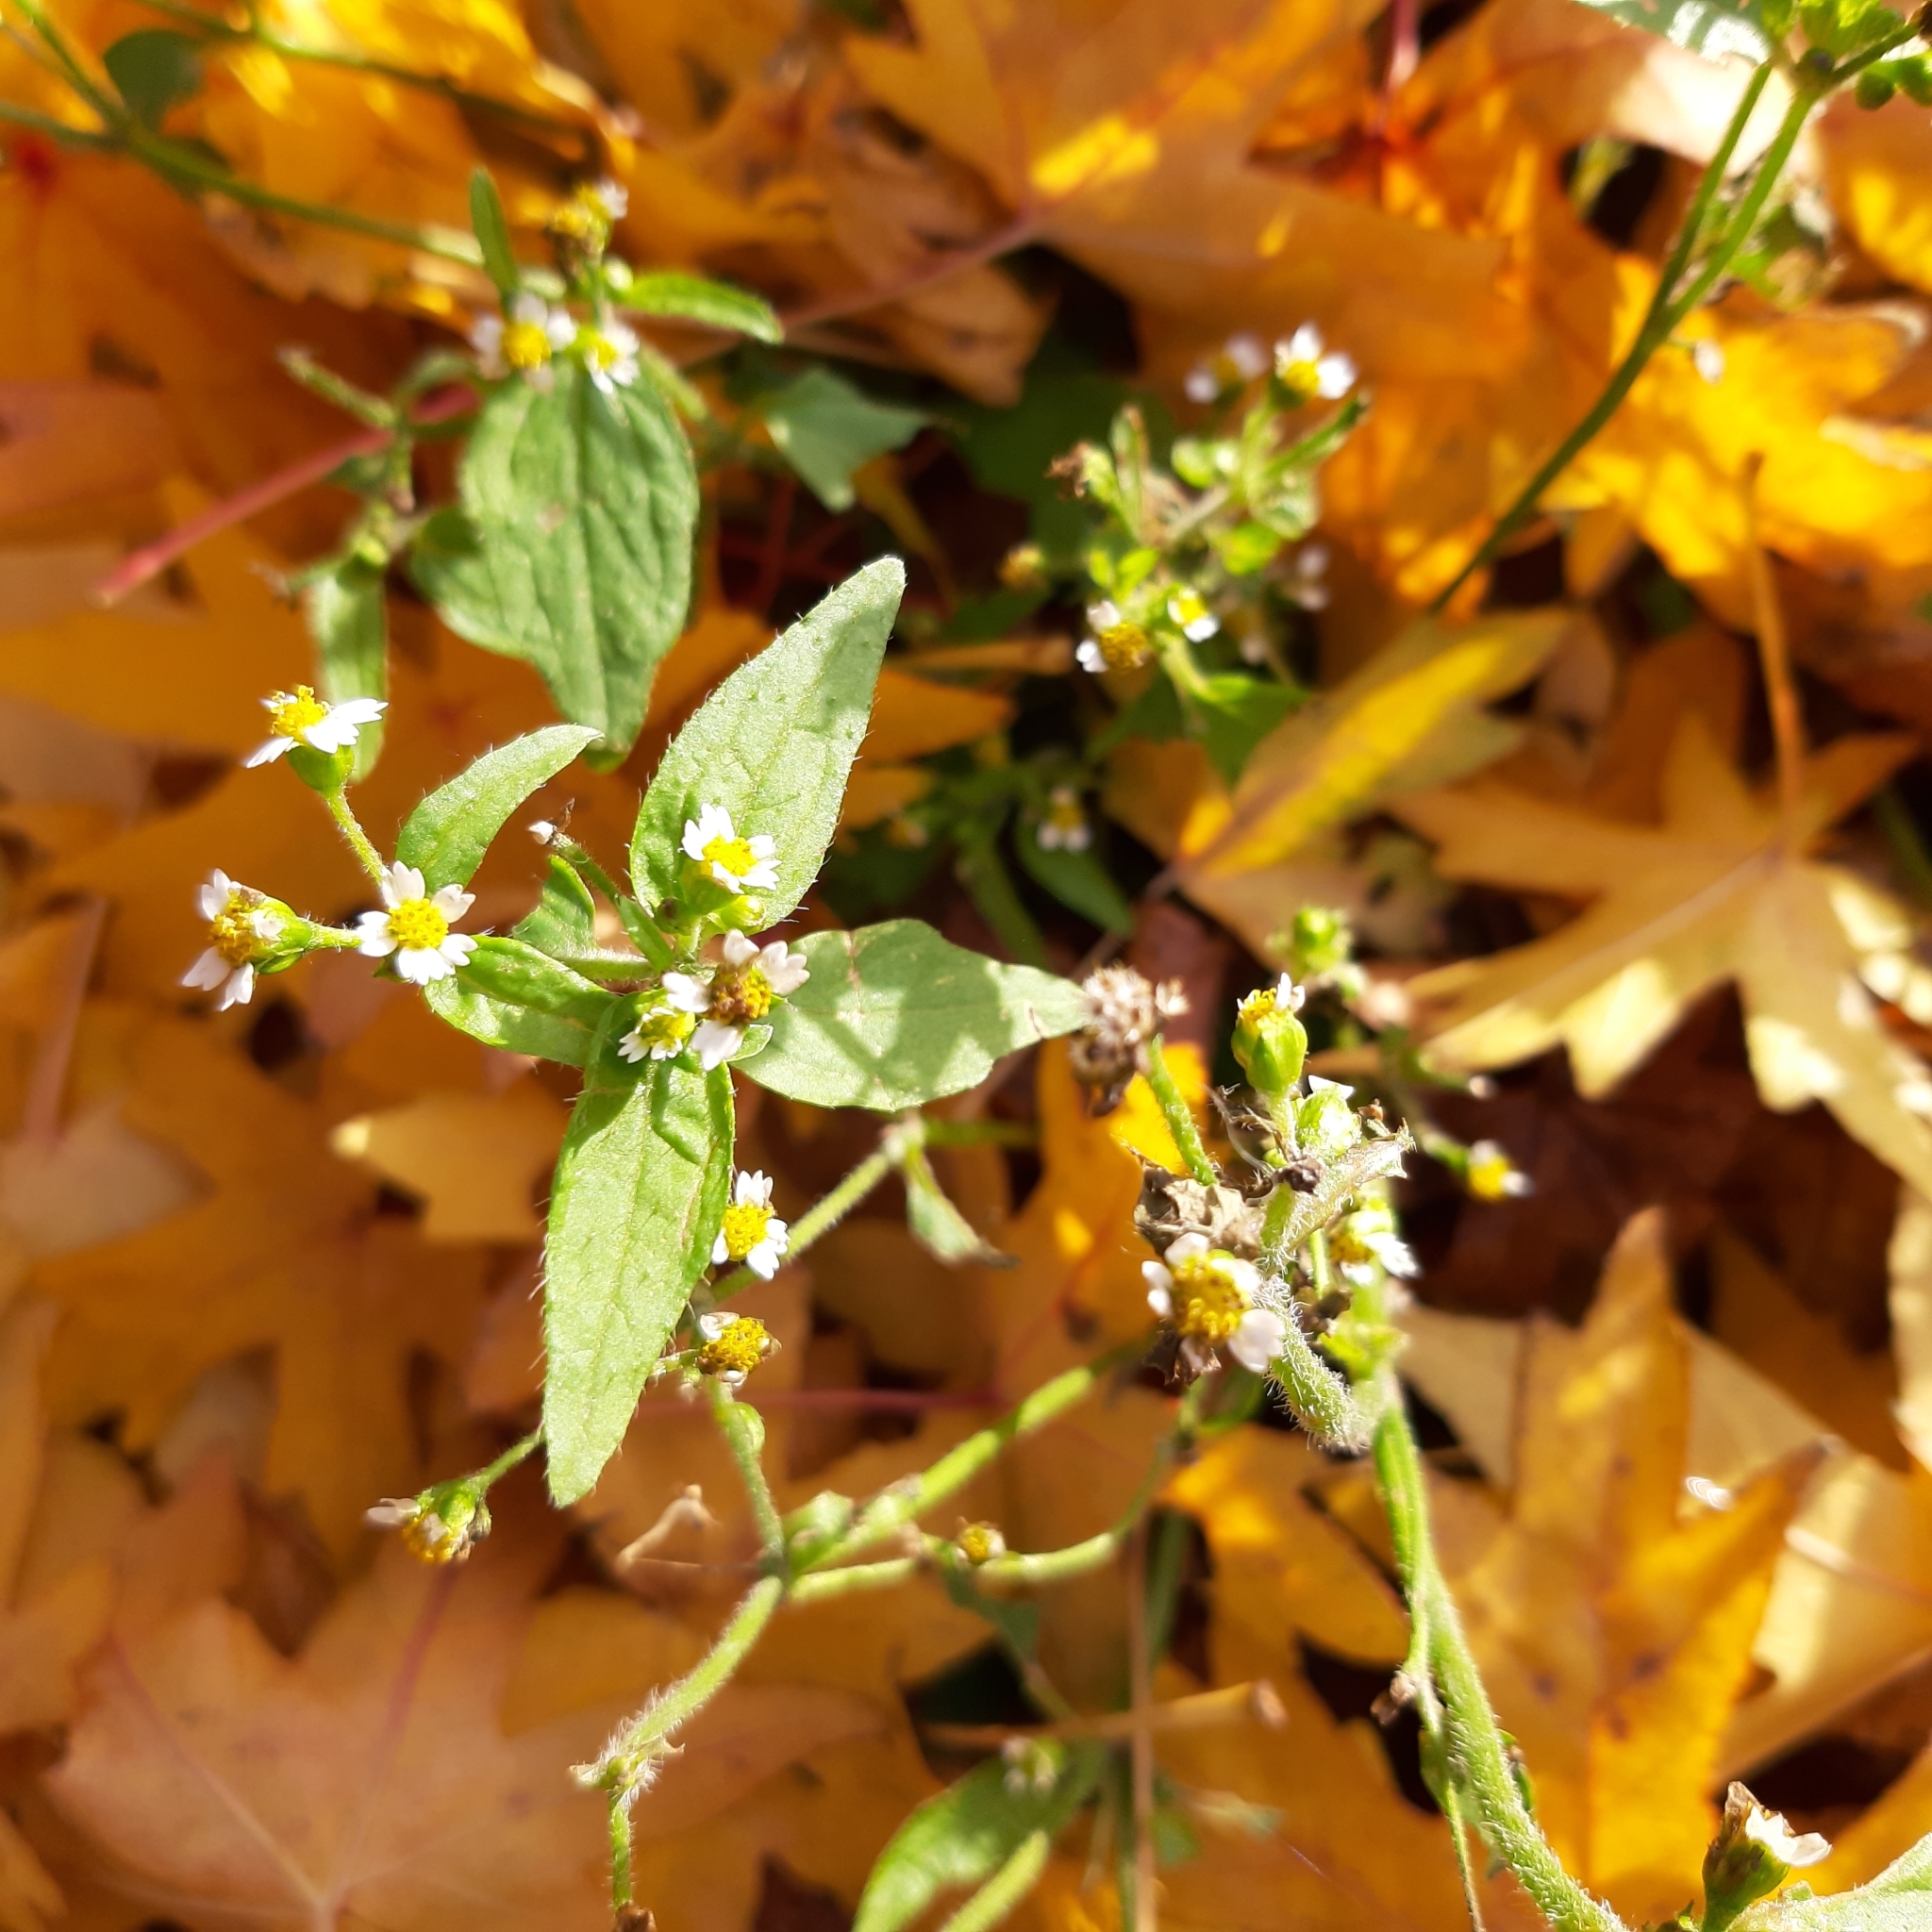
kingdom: Plantae
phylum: Tracheophyta
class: Magnoliopsida
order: Asterales
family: Asteraceae
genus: Galinsoga
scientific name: Galinsoga quadriradiata
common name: Shaggy soldier
